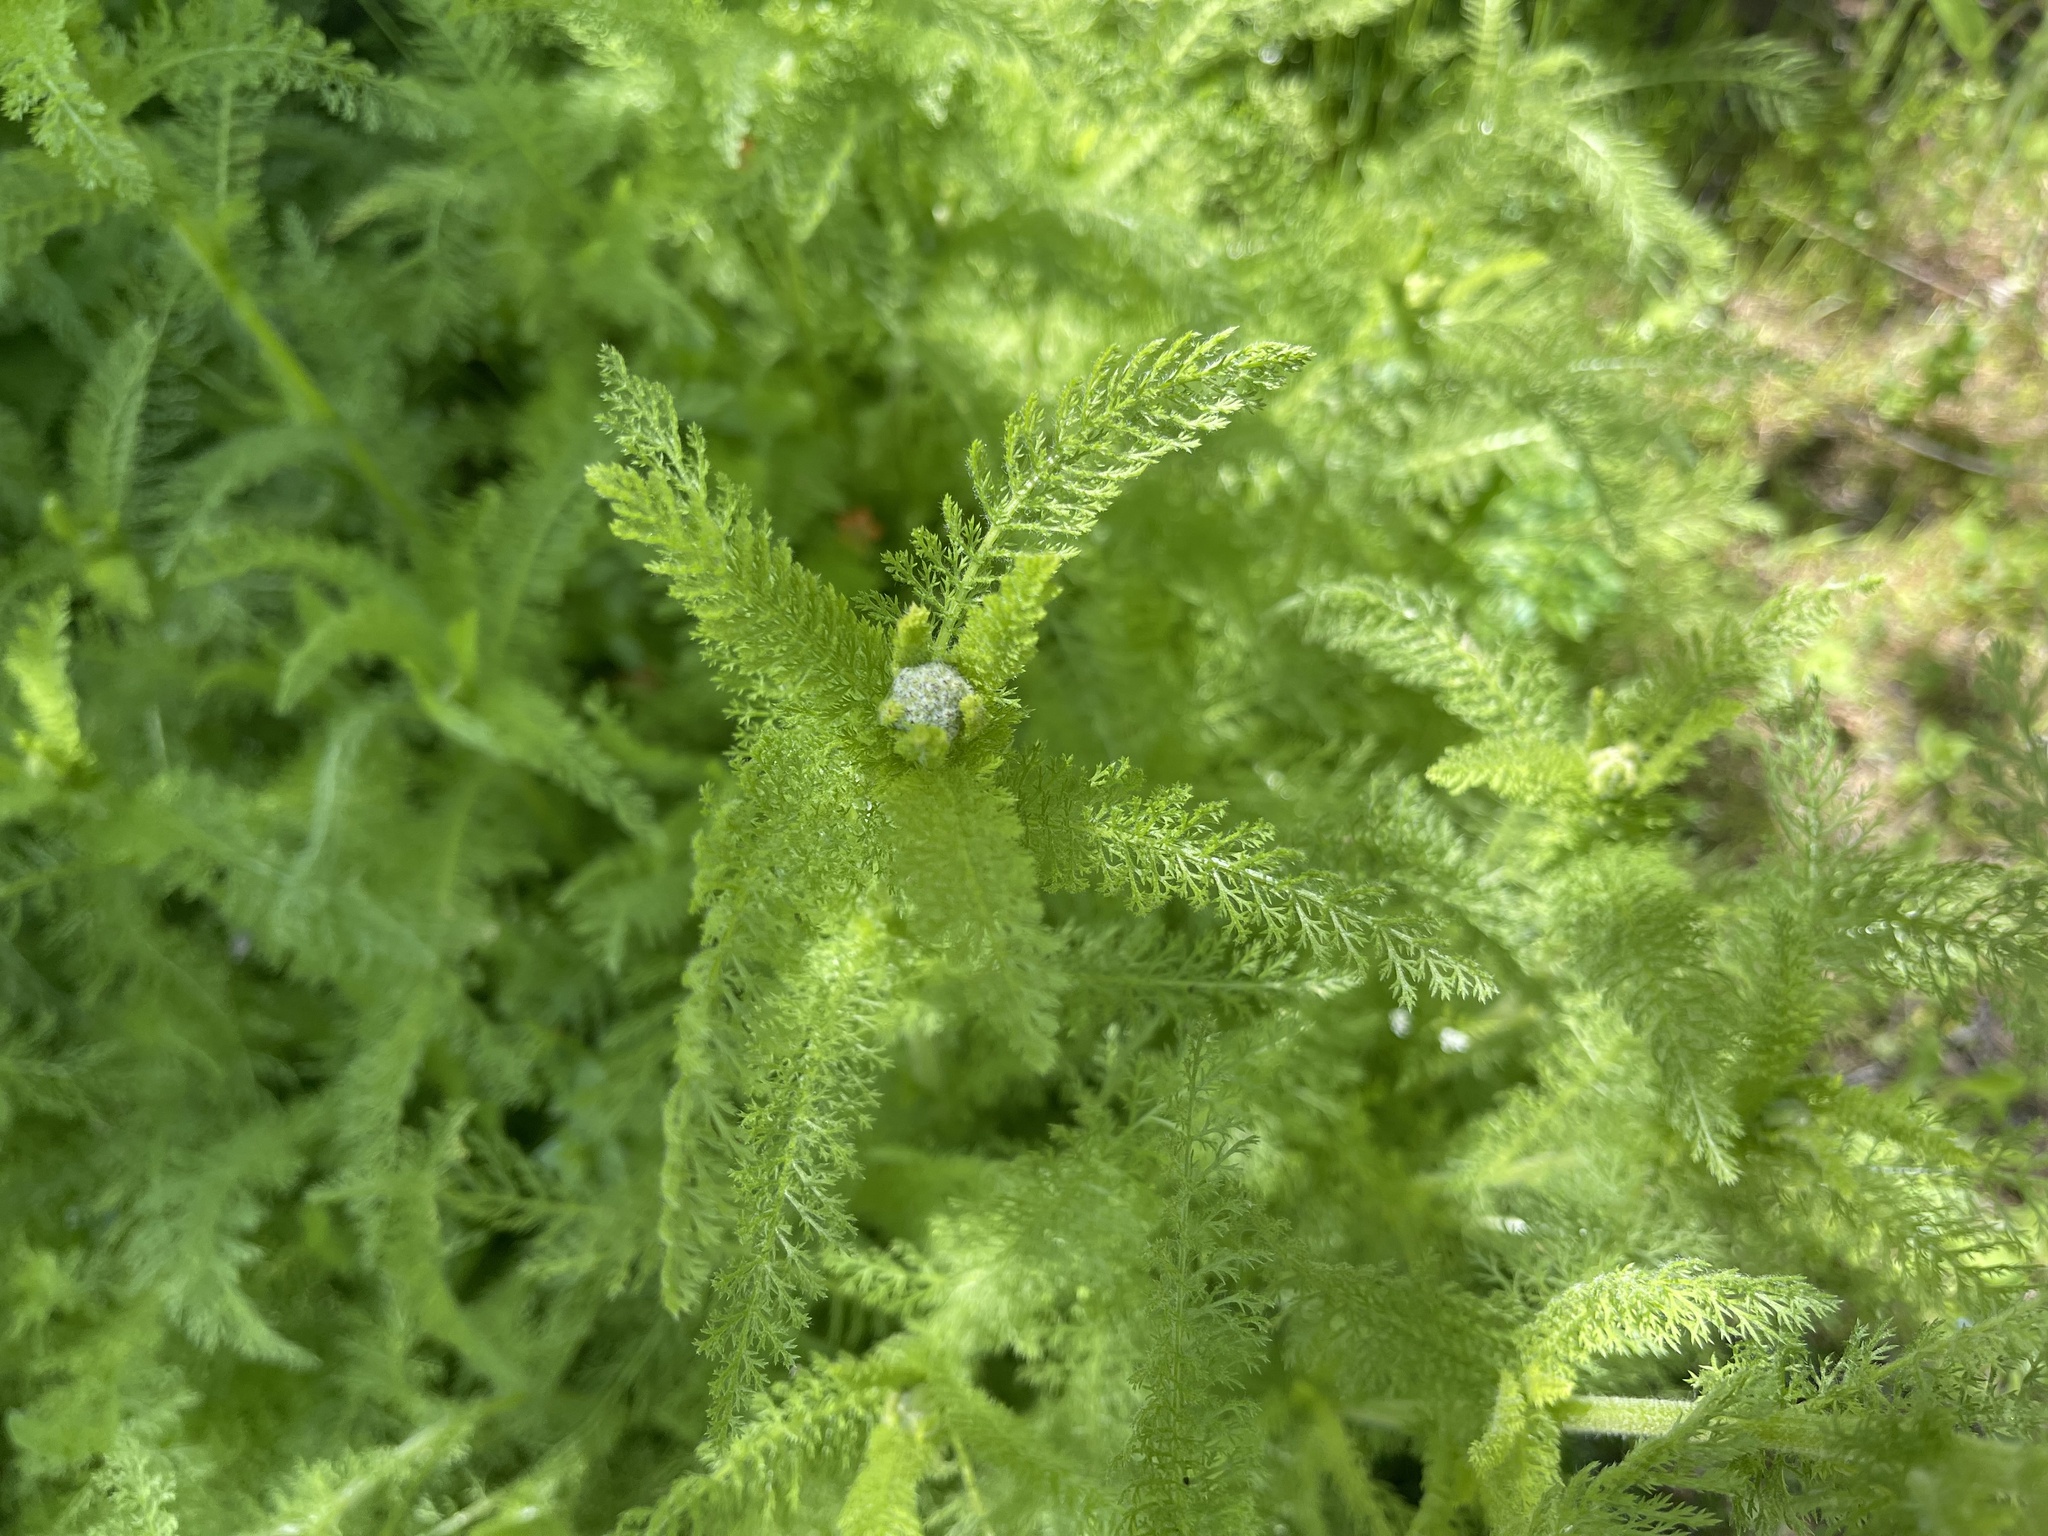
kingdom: Plantae
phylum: Tracheophyta
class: Magnoliopsida
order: Asterales
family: Asteraceae
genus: Achillea
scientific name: Achillea millefolium
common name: Yarrow
